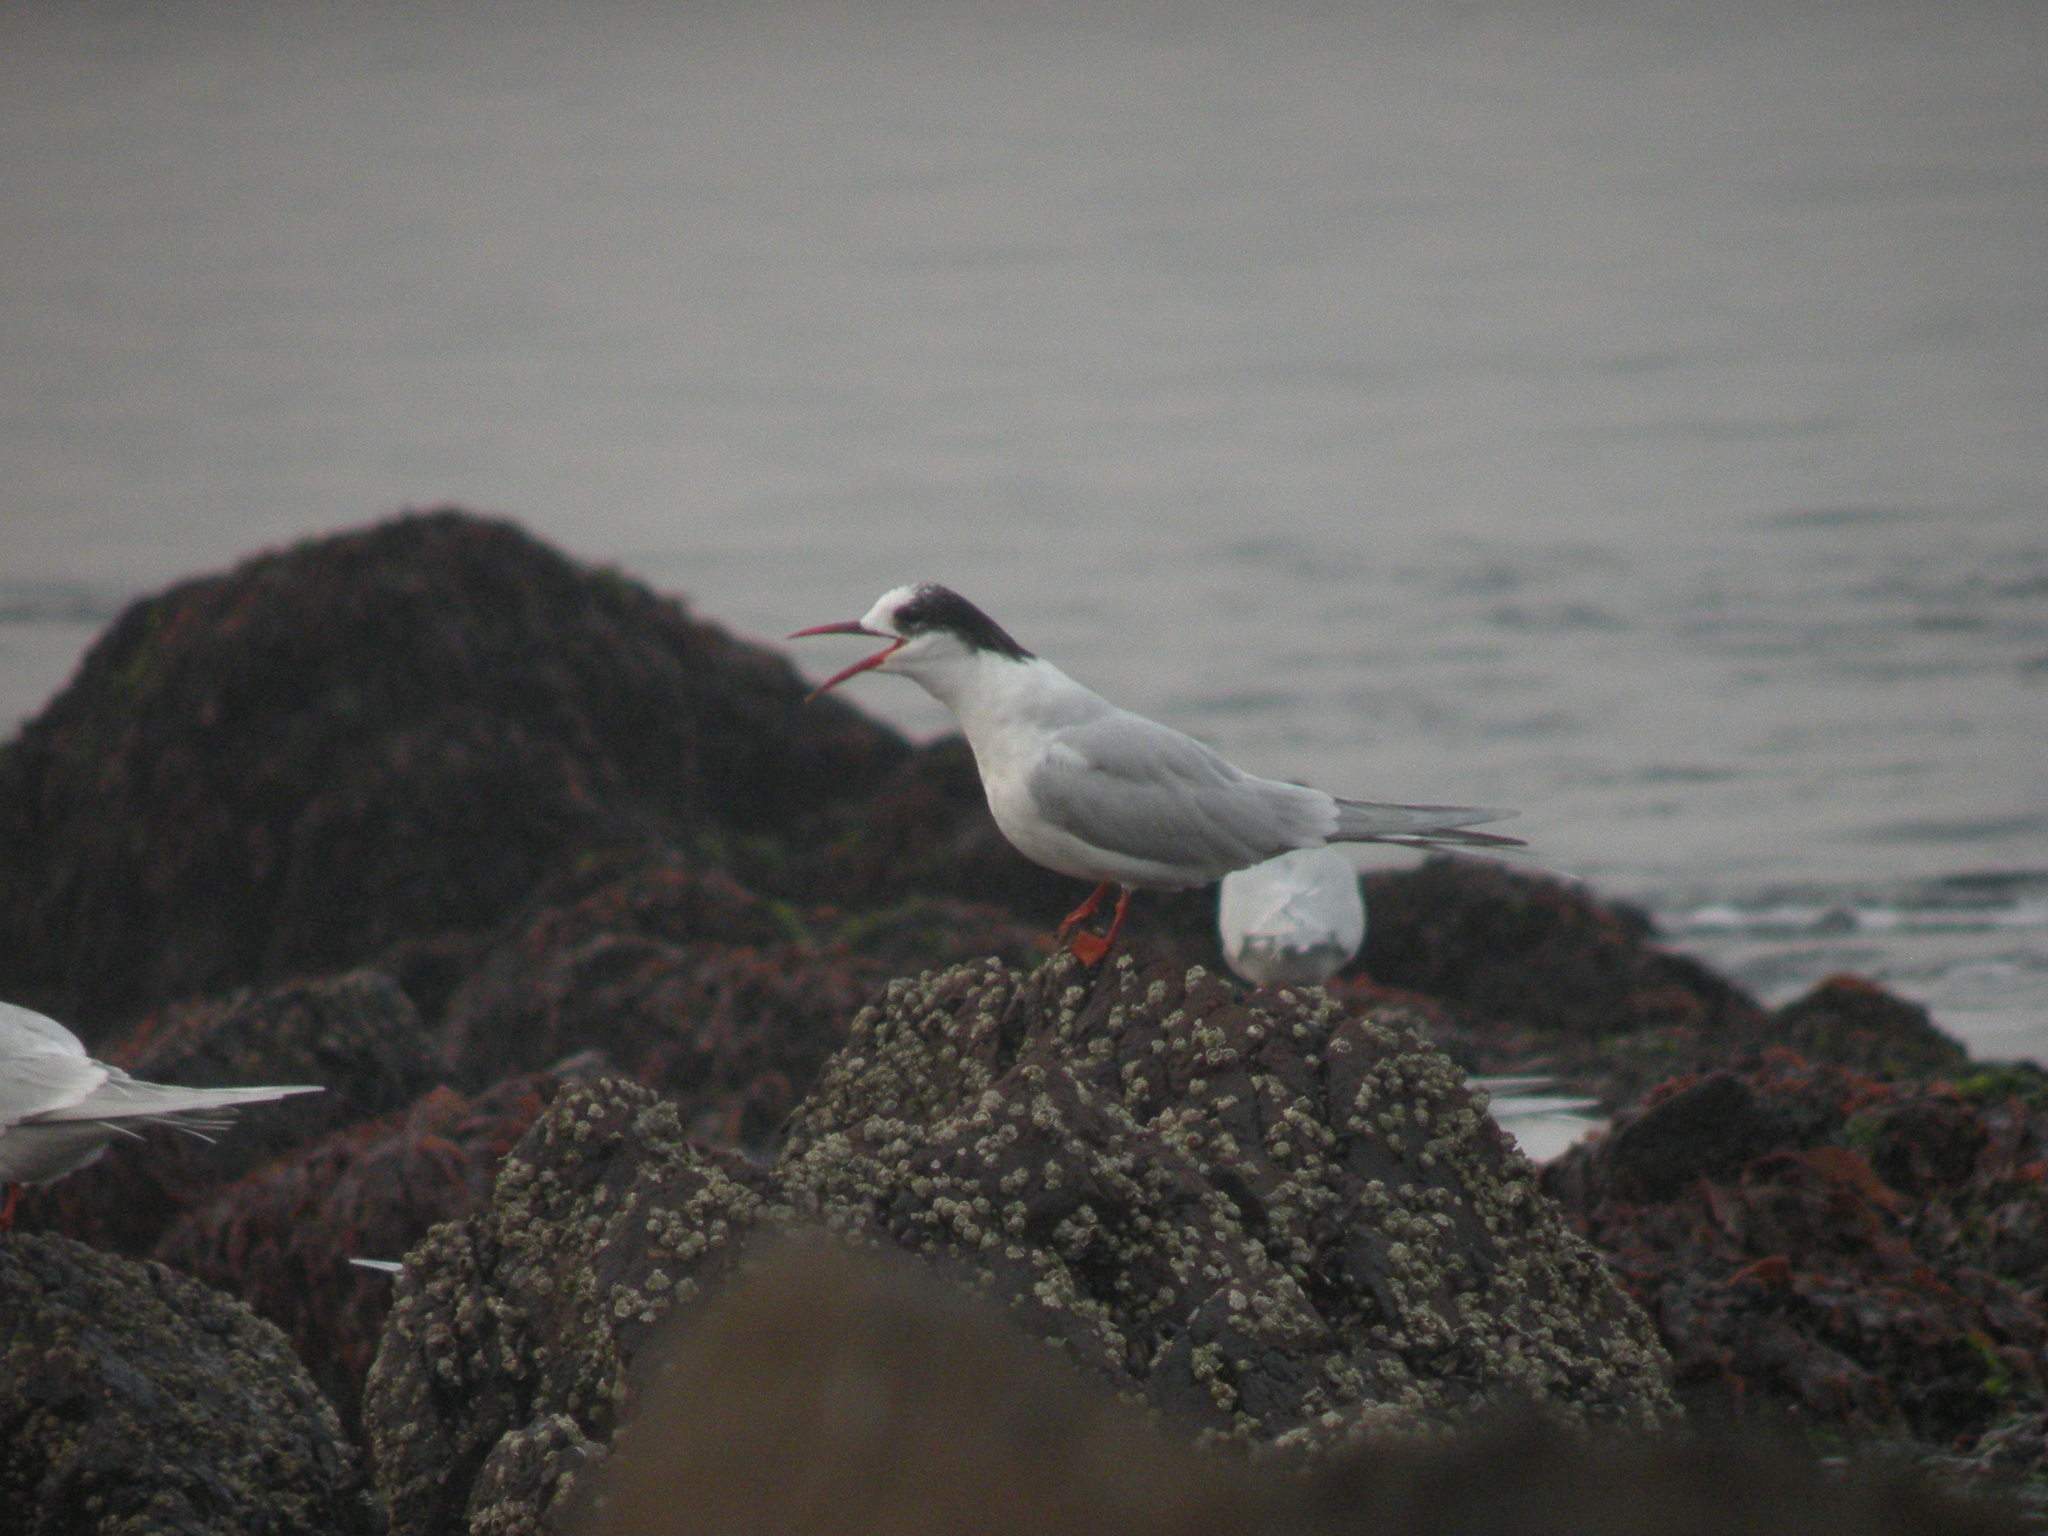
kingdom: Animalia
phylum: Chordata
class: Aves
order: Charadriiformes
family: Laridae
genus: Sterna
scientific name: Sterna hirundinacea
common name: South american tern
